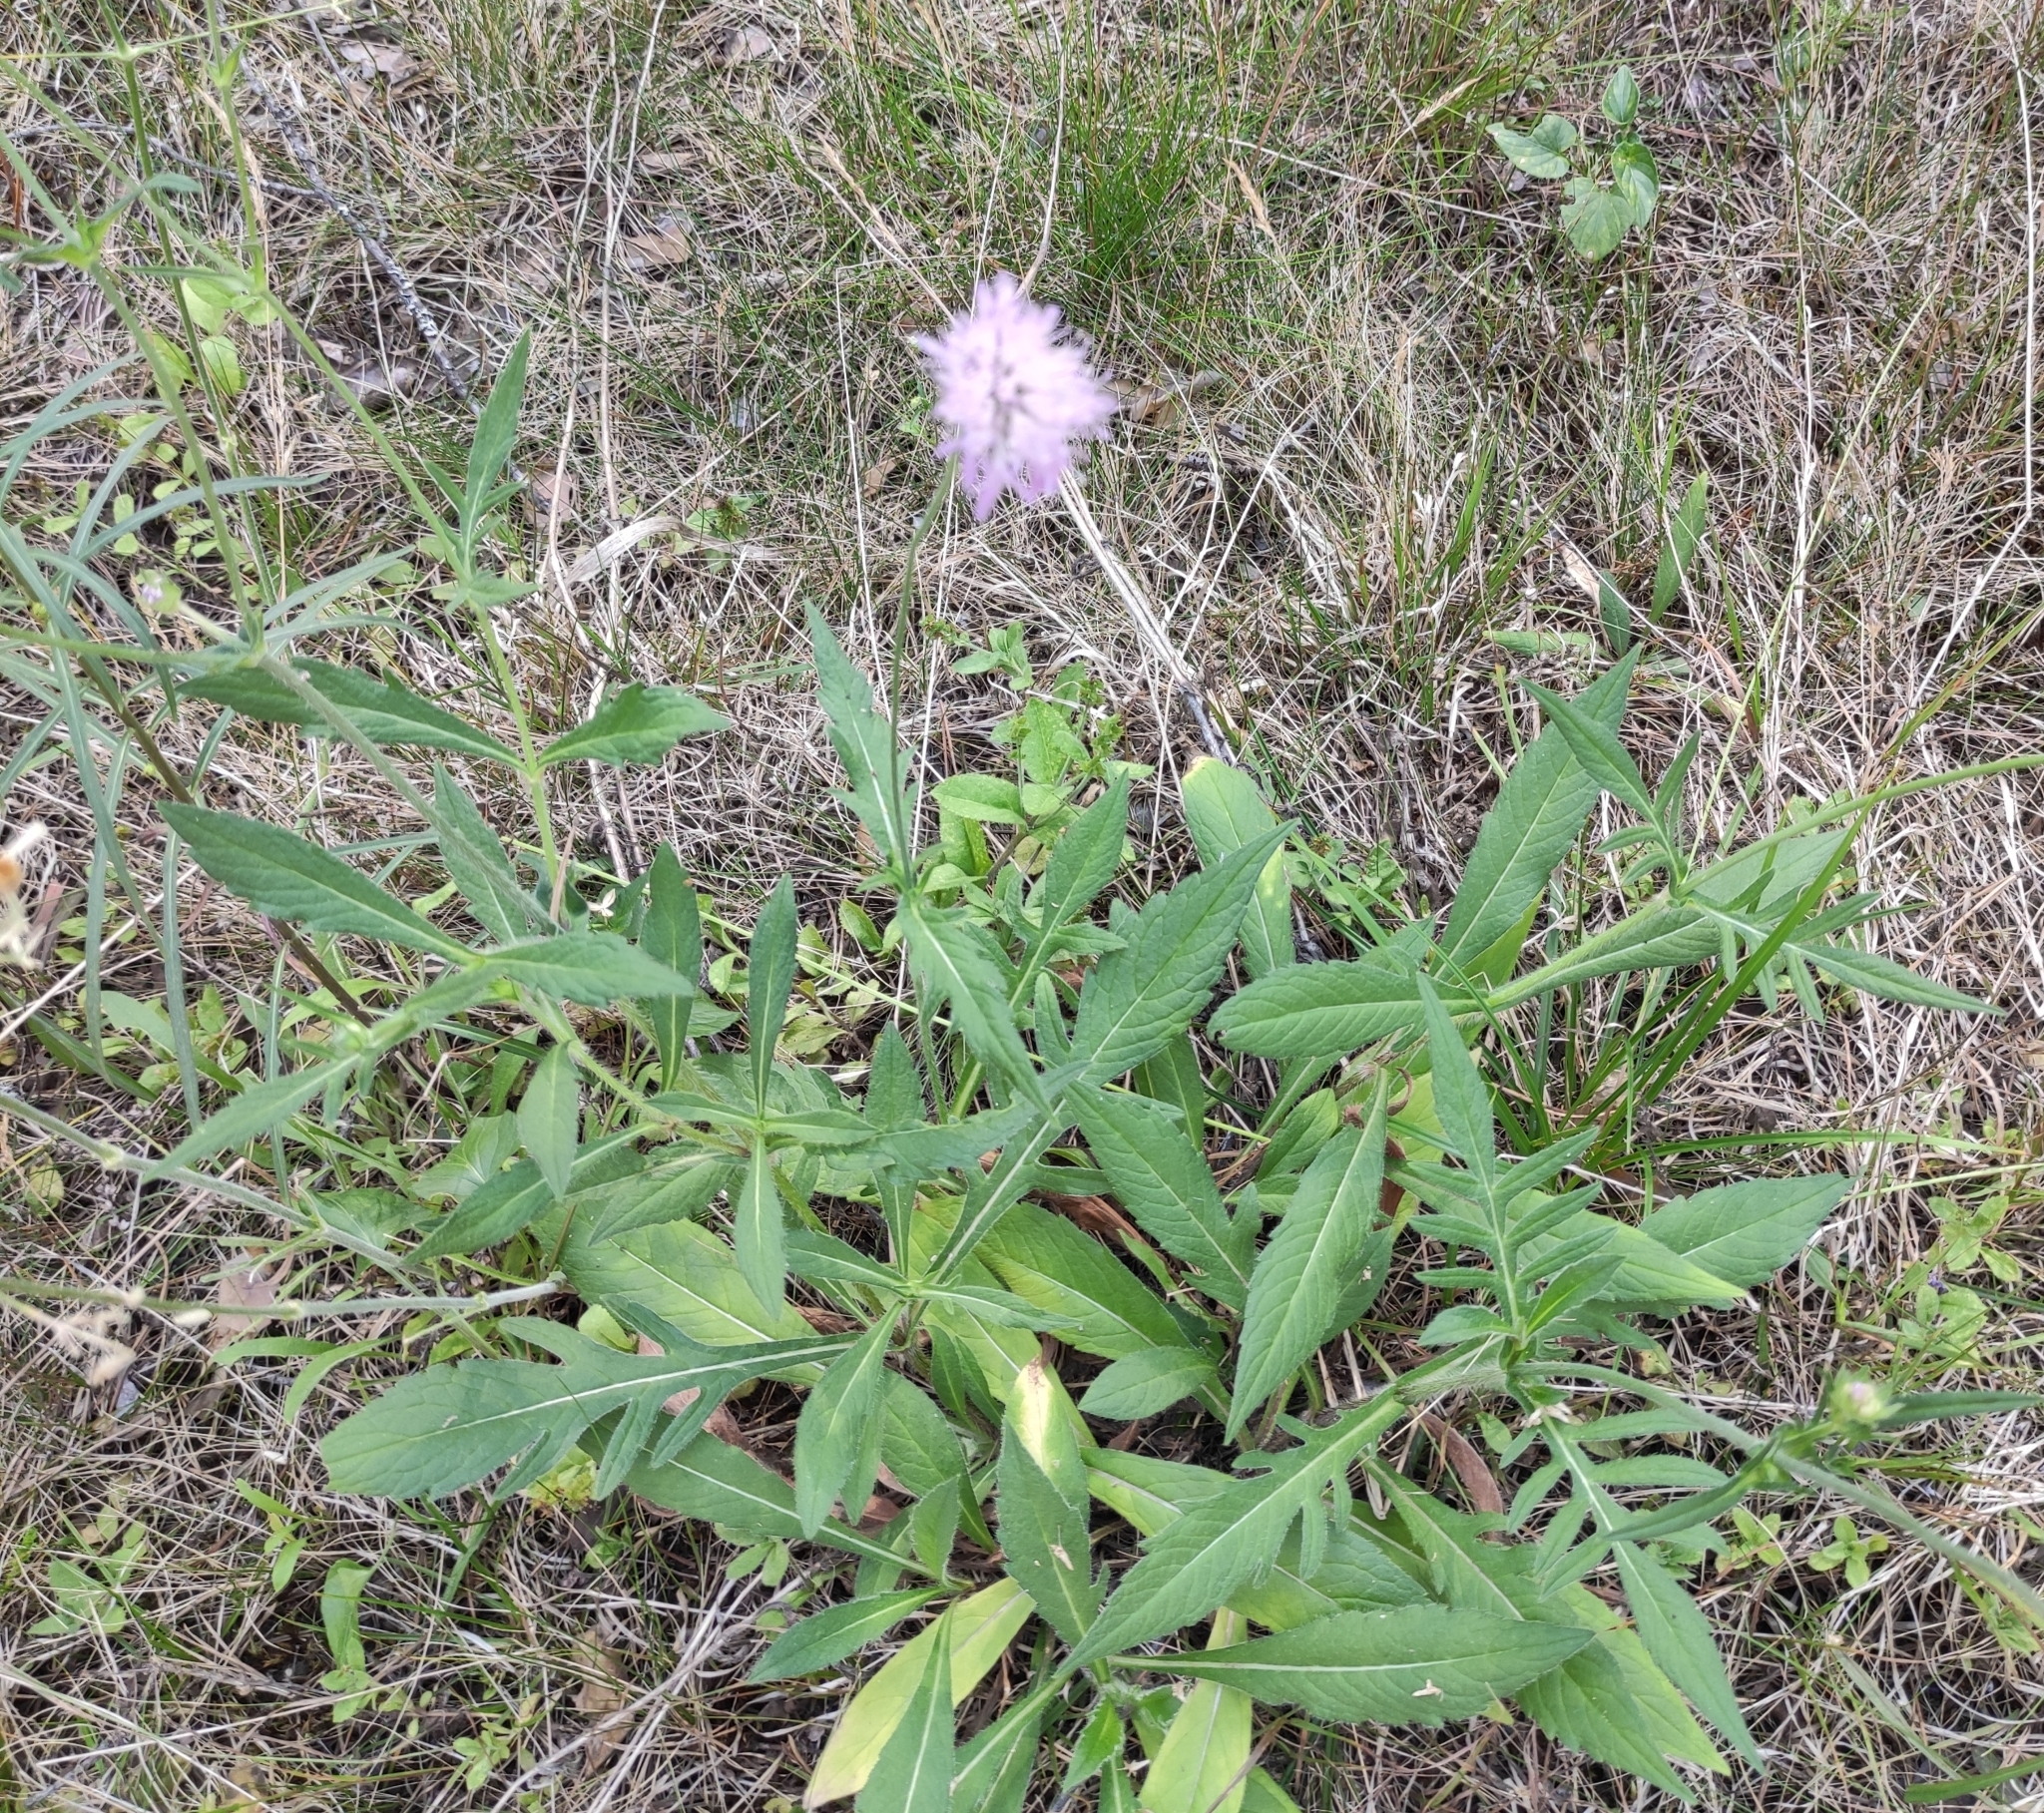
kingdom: Plantae
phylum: Tracheophyta
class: Magnoliopsida
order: Dipsacales
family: Caprifoliaceae
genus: Knautia
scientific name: Knautia arvensis
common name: Field scabiosa
